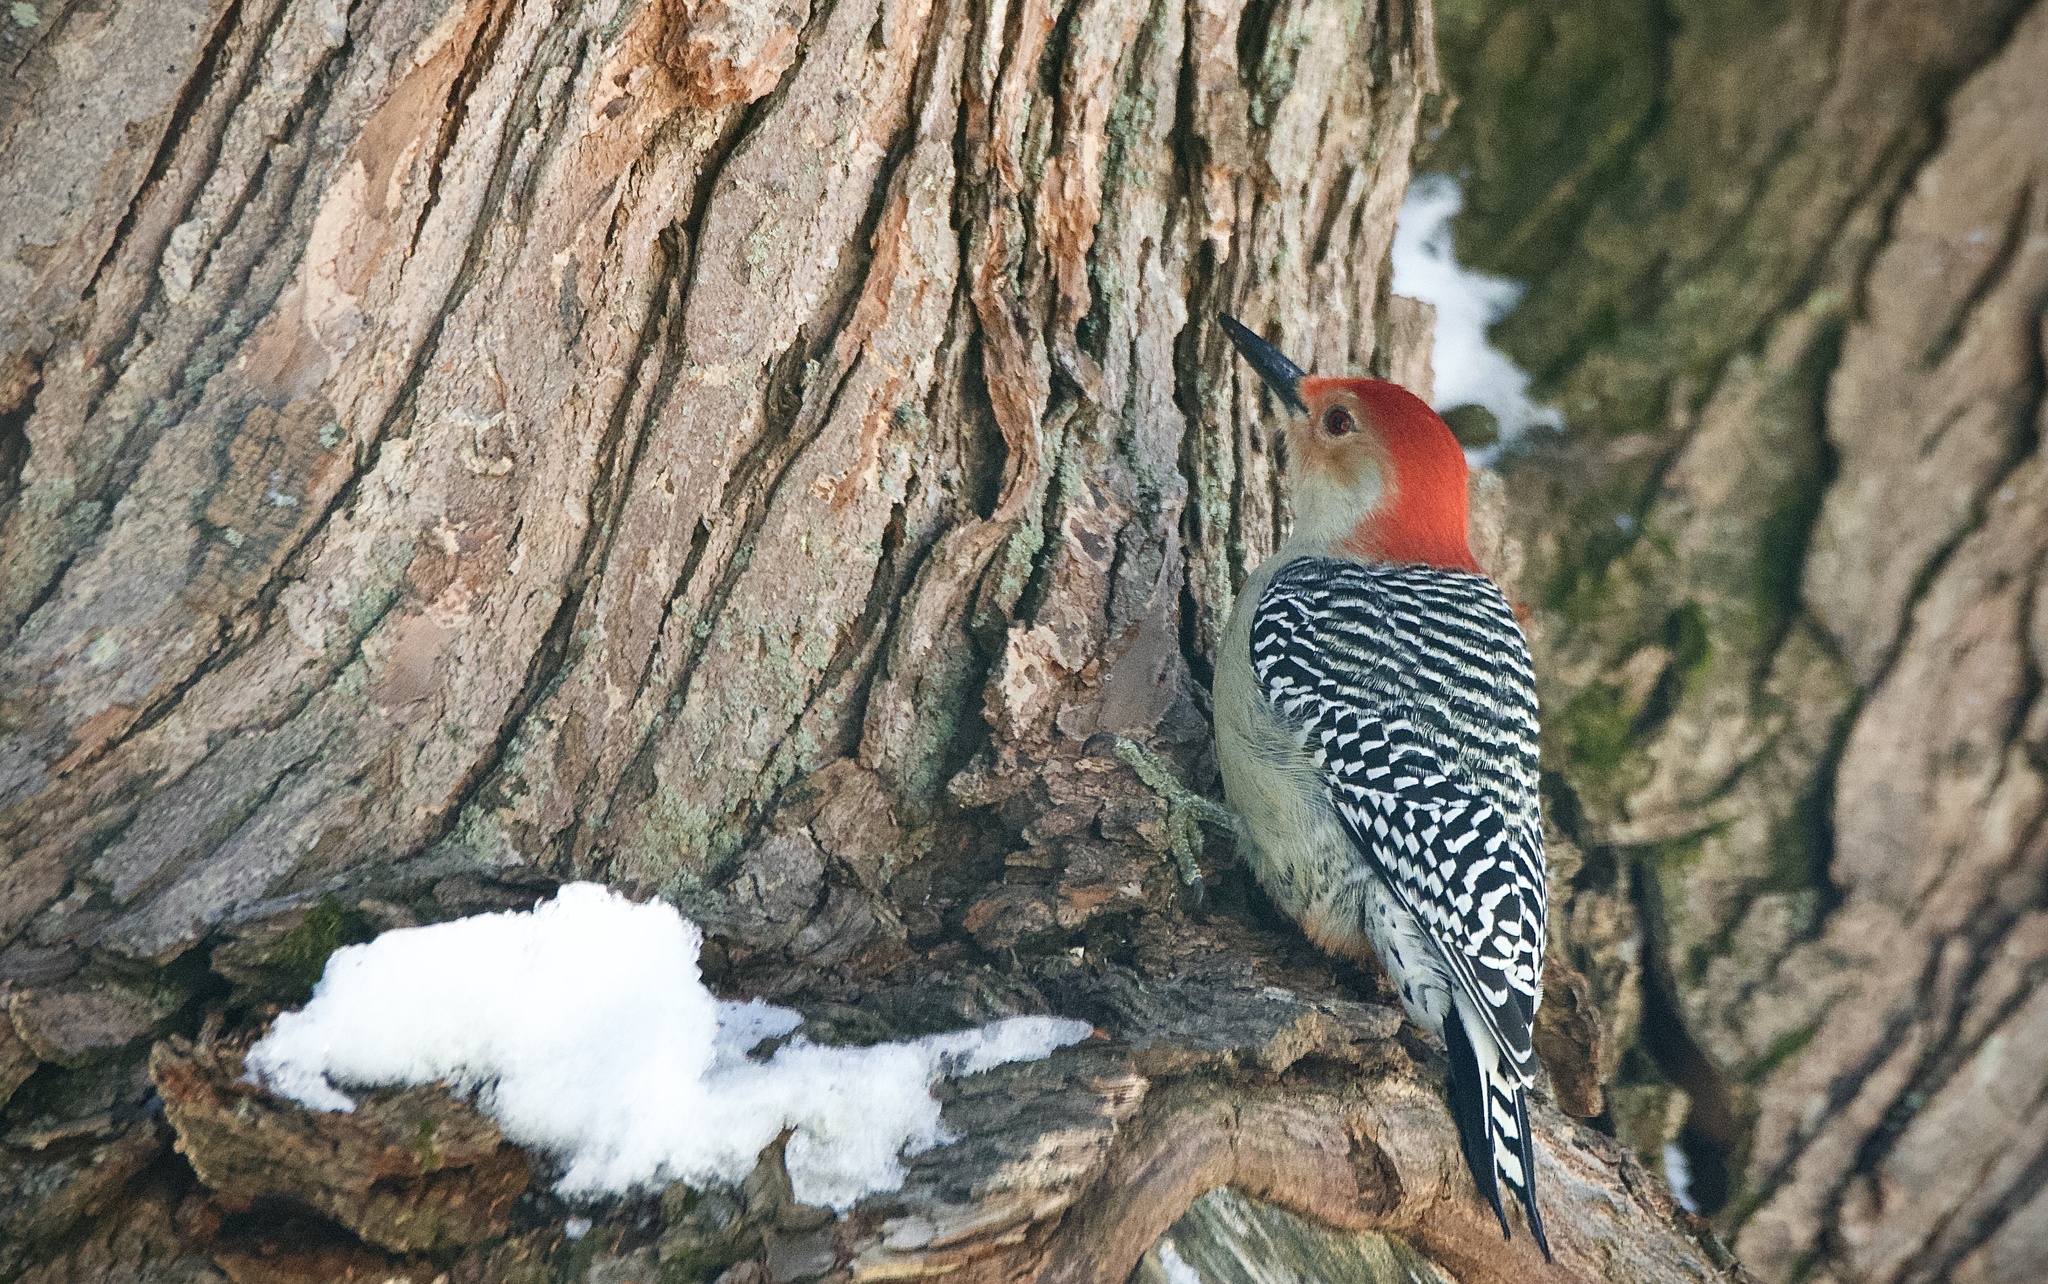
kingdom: Animalia
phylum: Chordata
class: Aves
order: Piciformes
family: Picidae
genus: Melanerpes
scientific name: Melanerpes carolinus
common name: Red-bellied woodpecker
